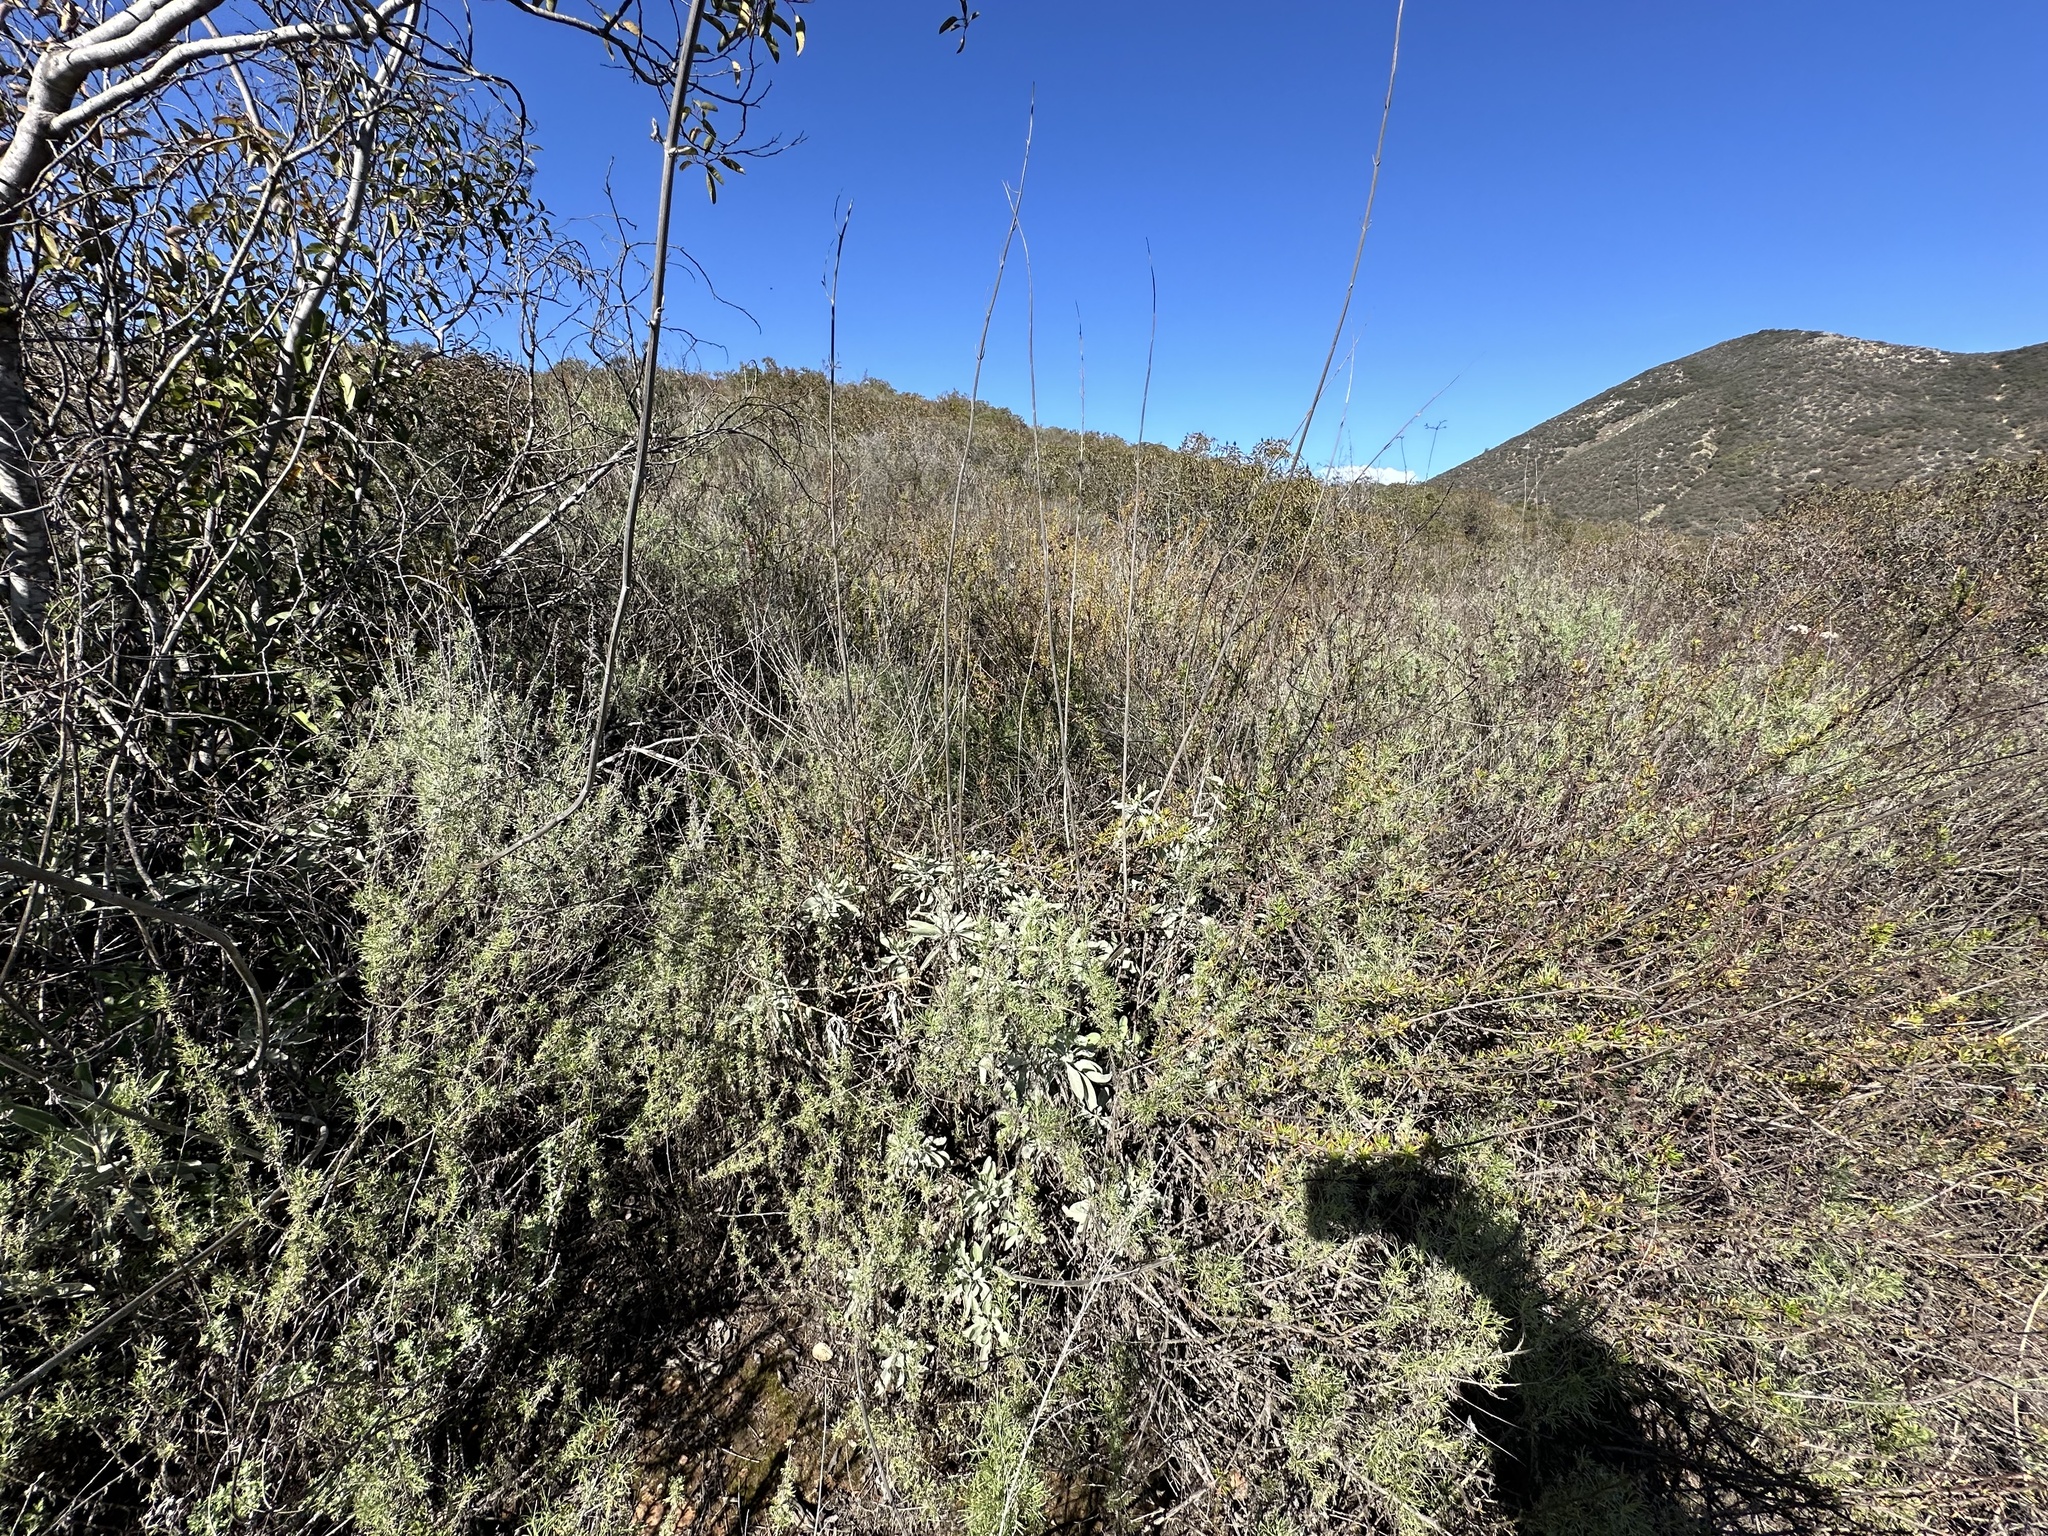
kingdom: Plantae
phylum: Tracheophyta
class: Magnoliopsida
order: Lamiales
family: Lamiaceae
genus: Salvia
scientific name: Salvia apiana
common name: White sage
